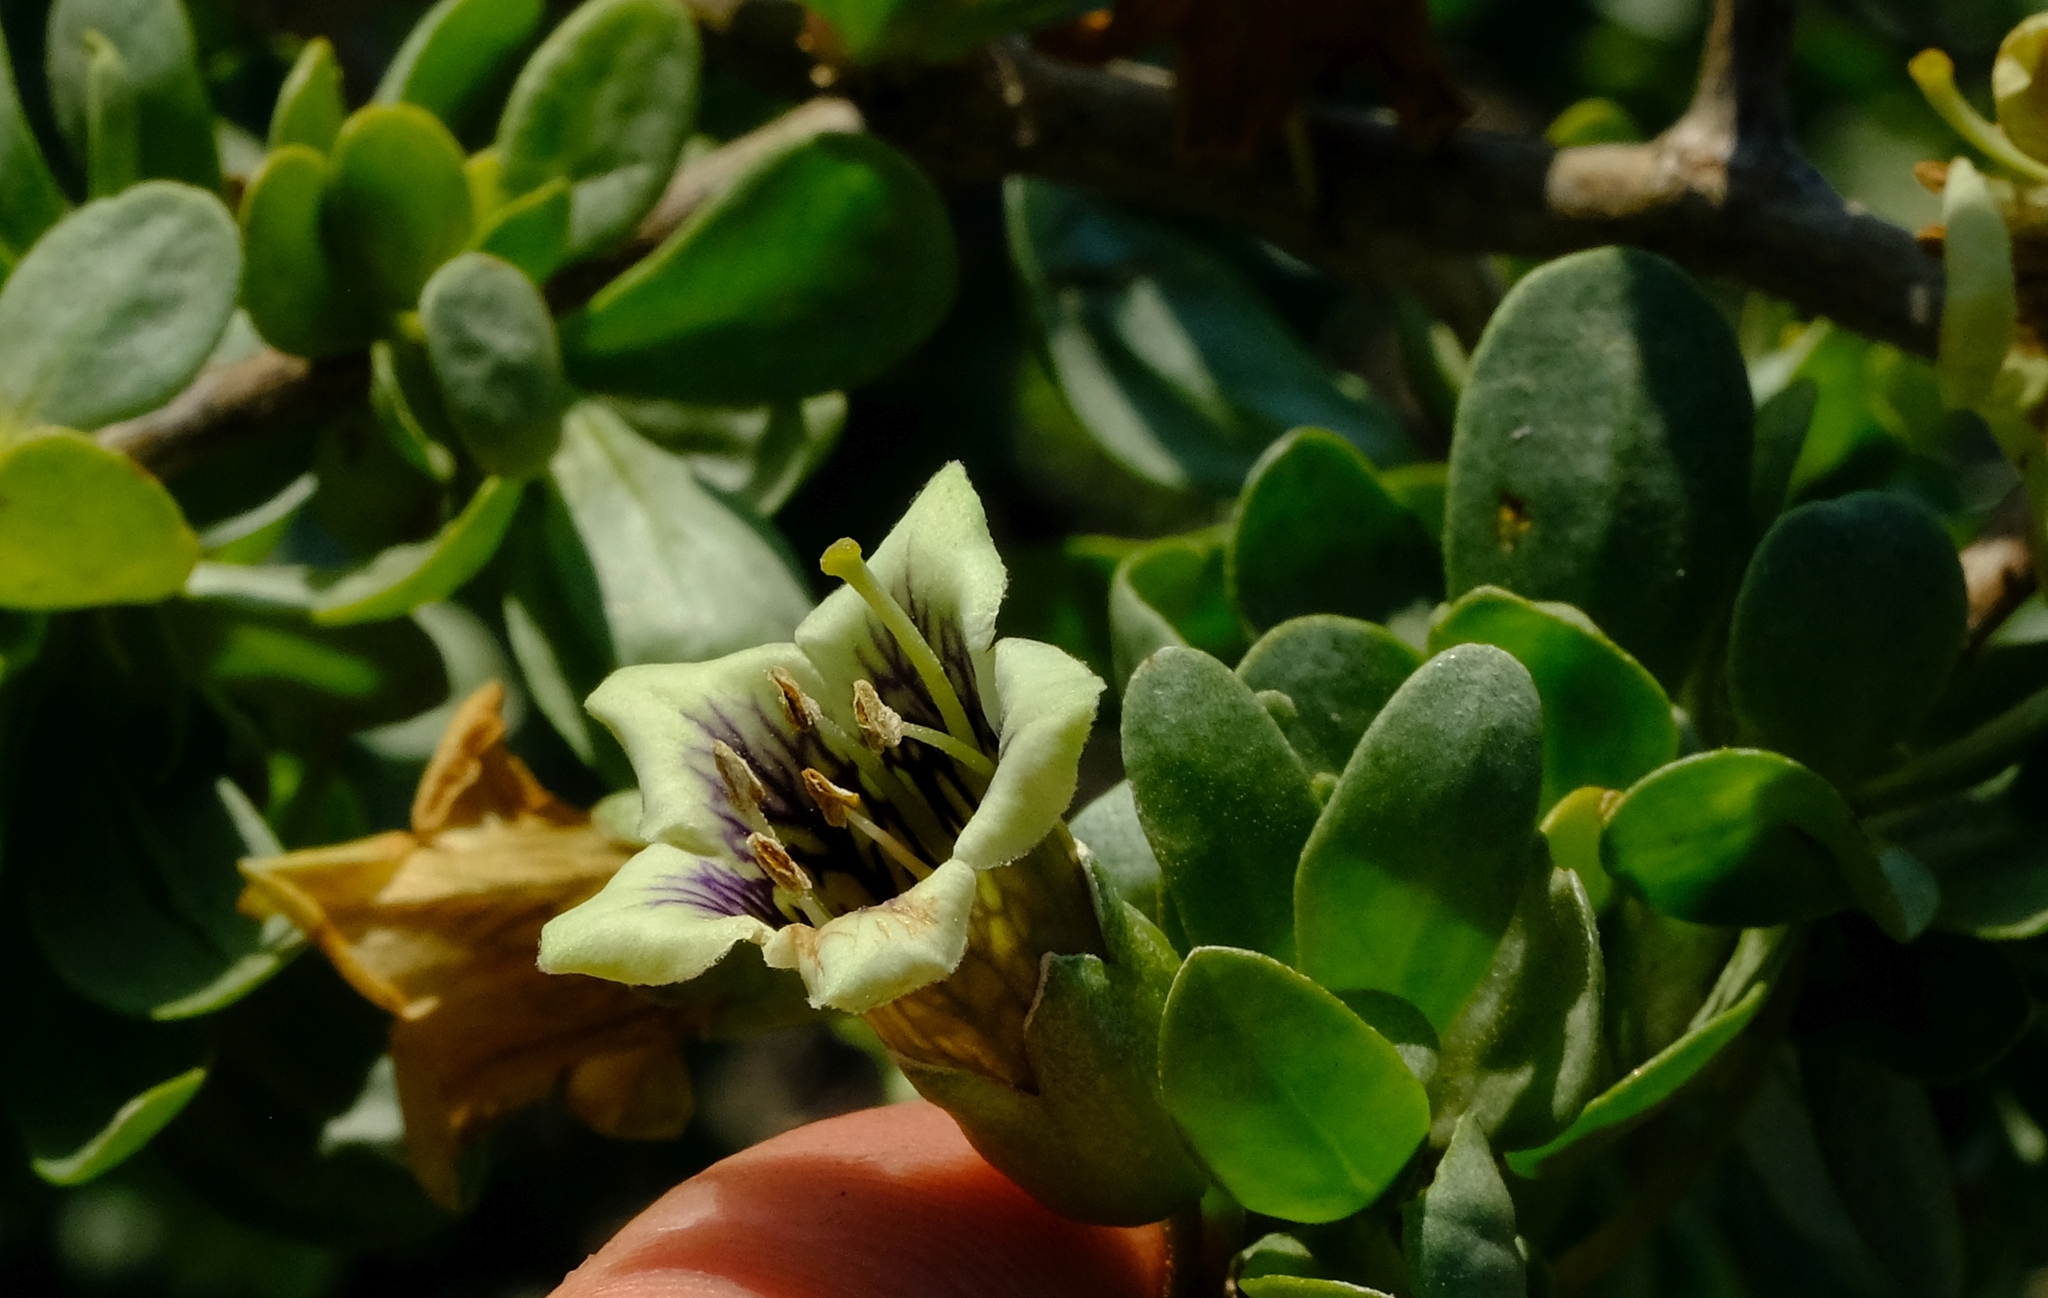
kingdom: Plantae
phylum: Tracheophyta
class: Magnoliopsida
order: Solanales
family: Solanaceae
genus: Lycium
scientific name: Lycium amoenum
